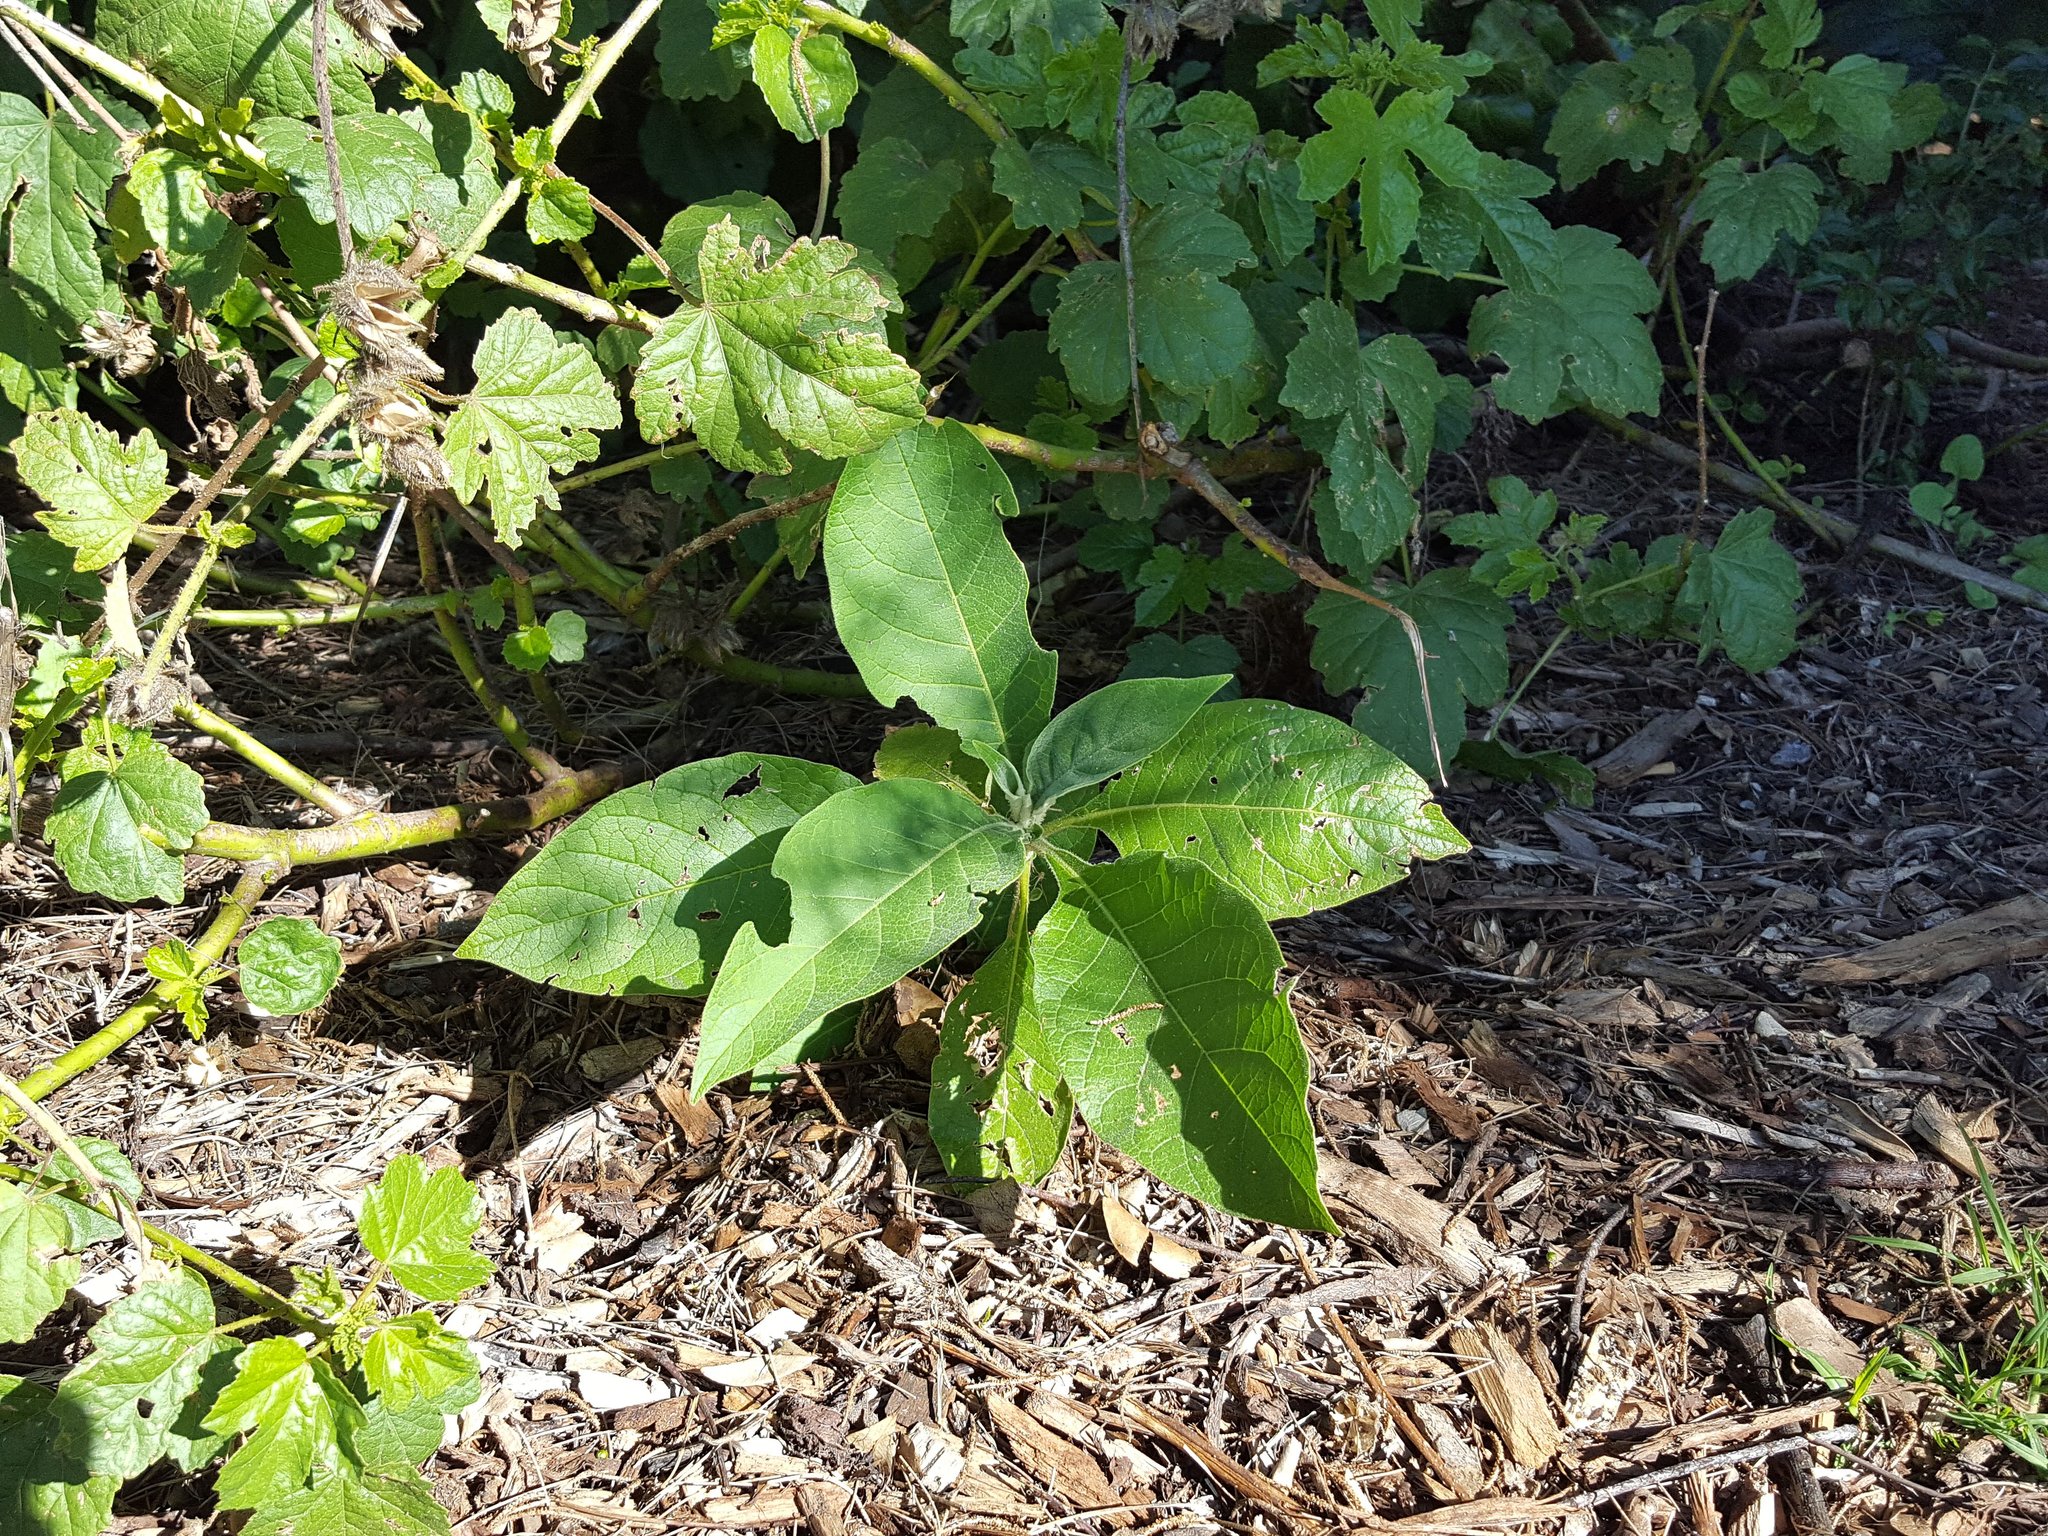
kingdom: Plantae
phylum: Tracheophyta
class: Magnoliopsida
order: Solanales
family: Solanaceae
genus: Solanum
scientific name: Solanum mauritianum
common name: Earleaf nightshade
